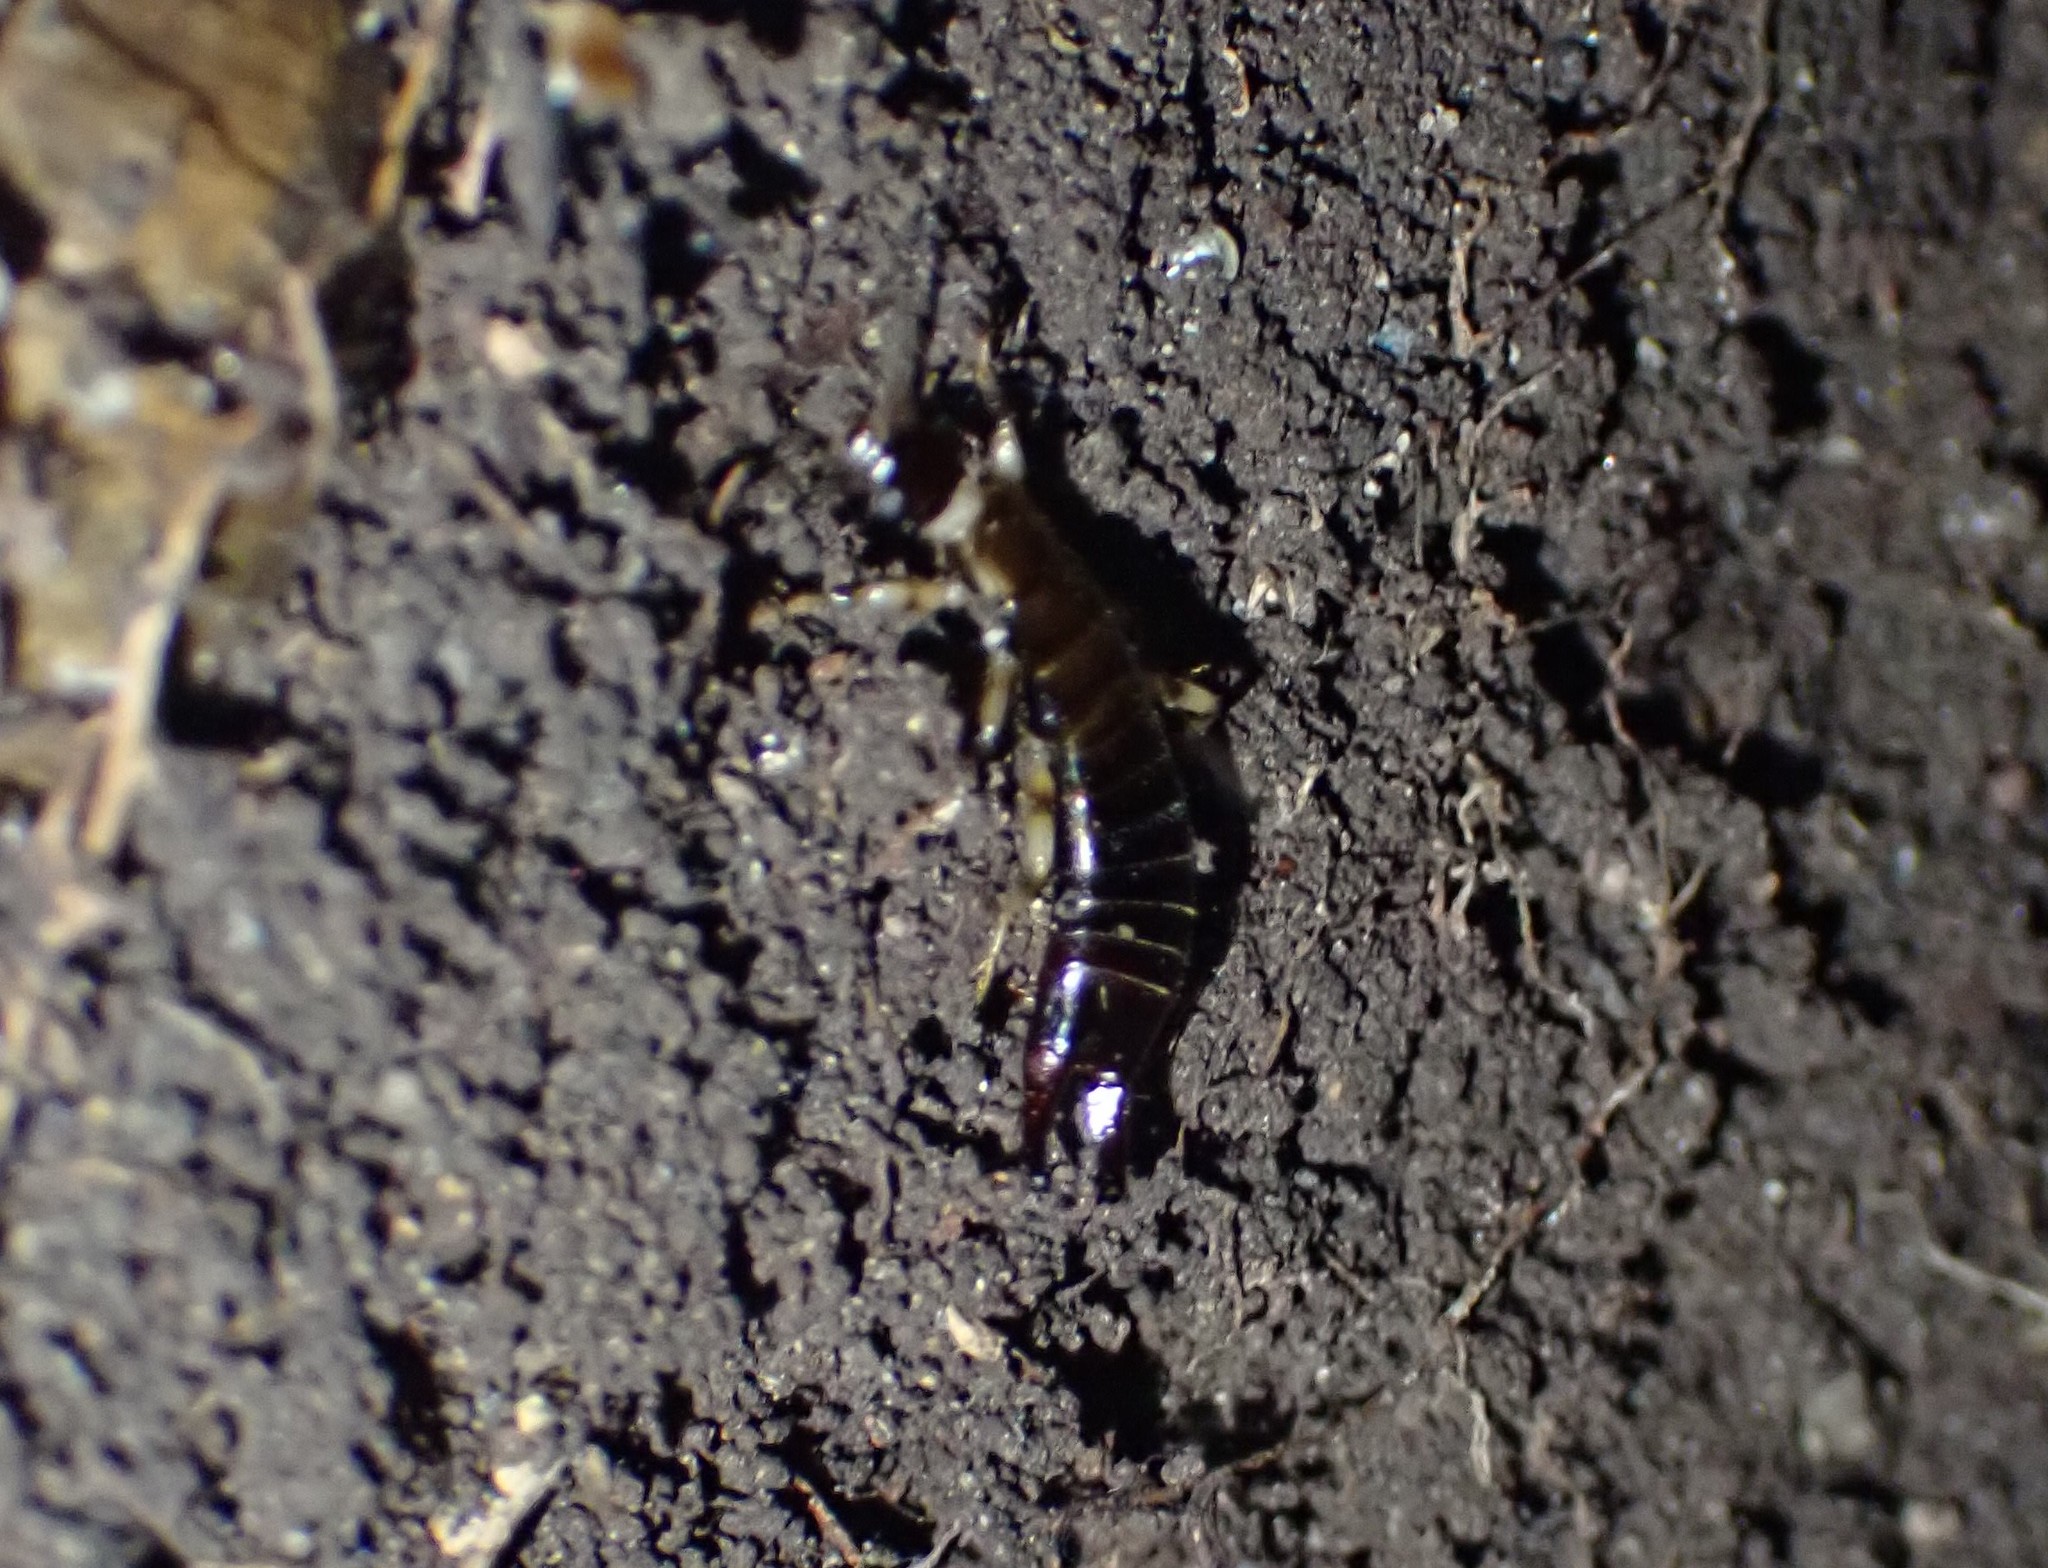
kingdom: Animalia
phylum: Arthropoda
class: Insecta
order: Dermaptera
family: Anisolabididae
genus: Euborellia
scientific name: Euborellia annulipes
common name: Ringlegged earwig
